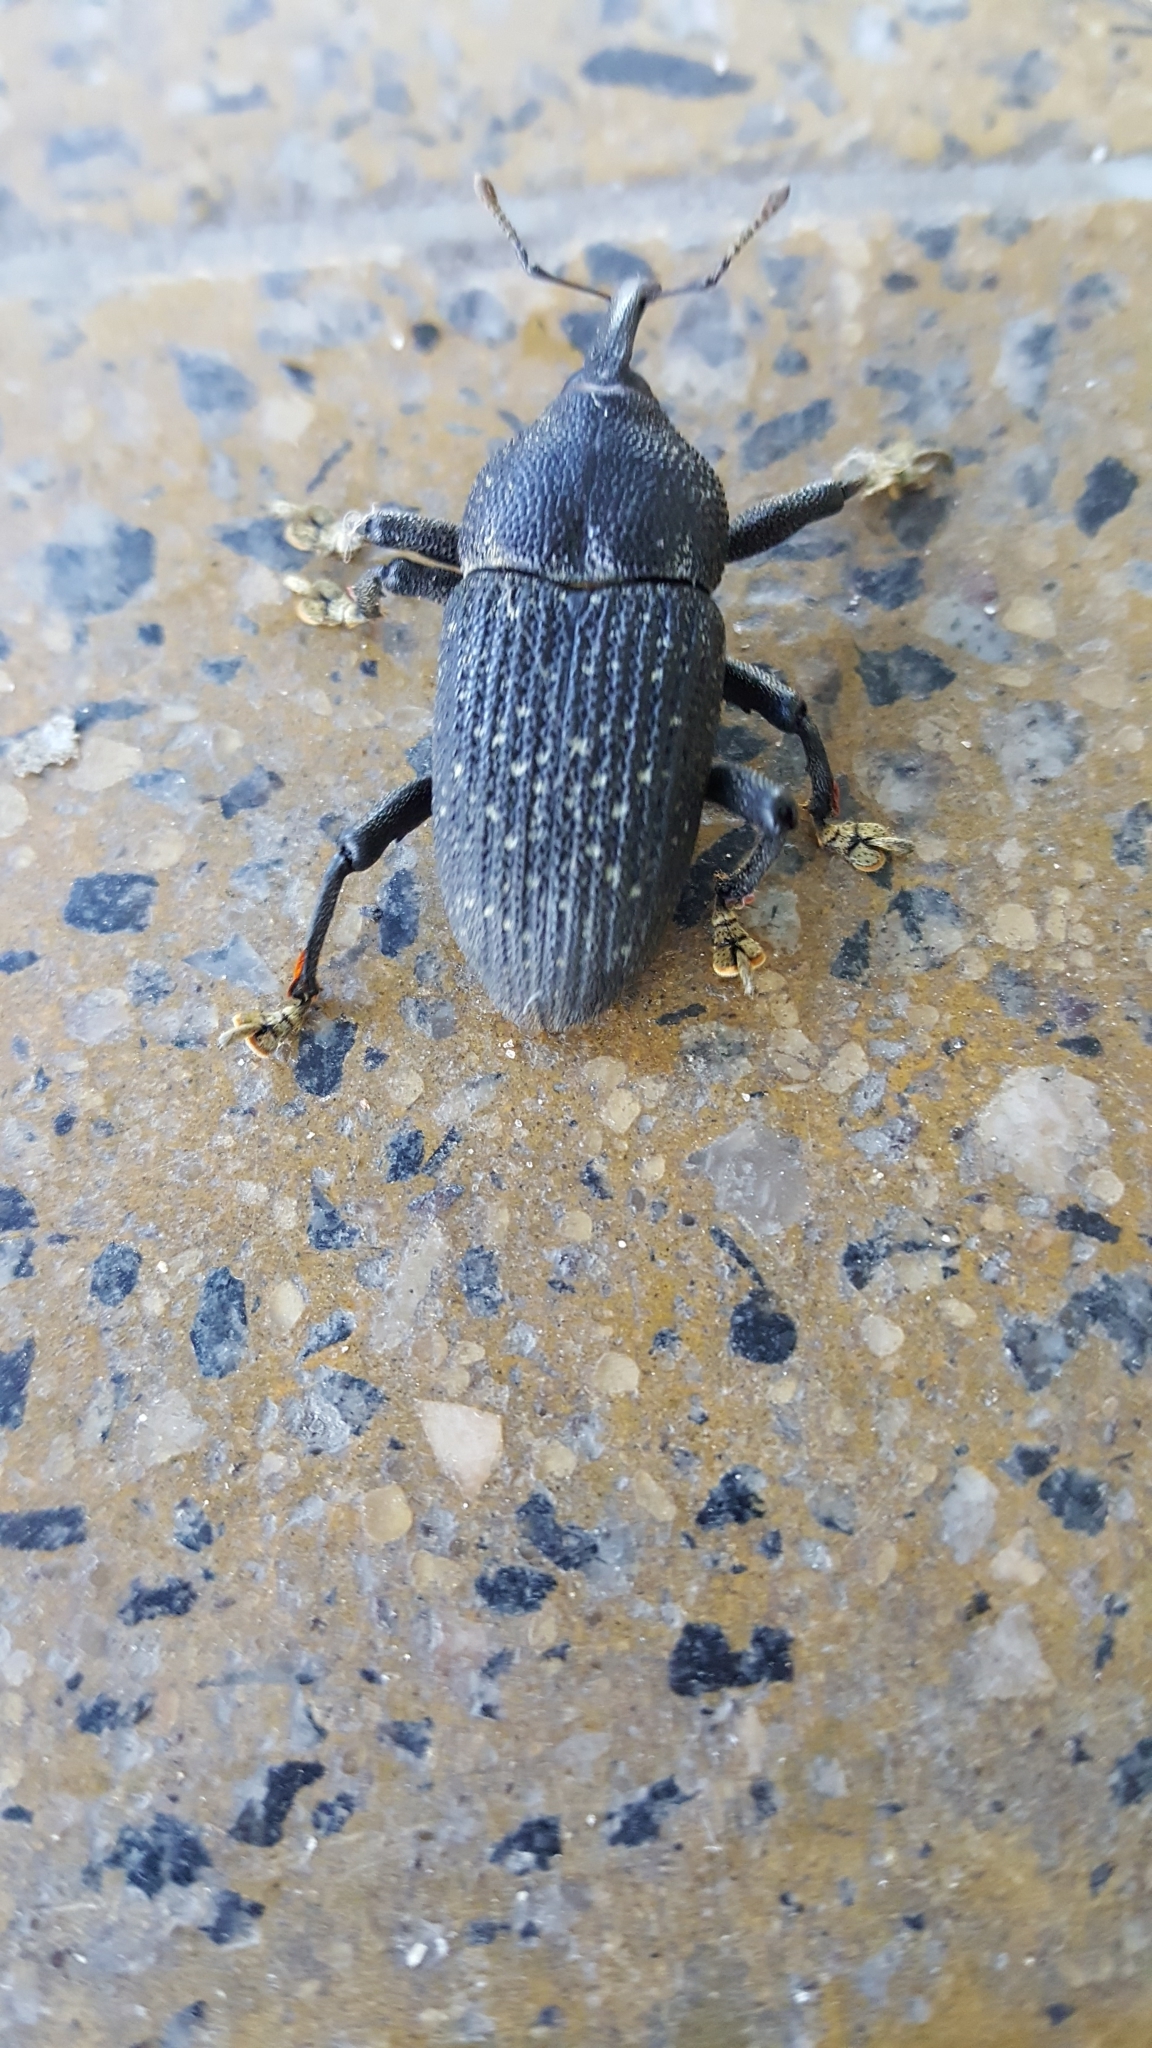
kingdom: Animalia
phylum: Arthropoda
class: Insecta
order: Coleoptera
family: Curculionidae
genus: Homalinotus
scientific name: Homalinotus coriaceus
